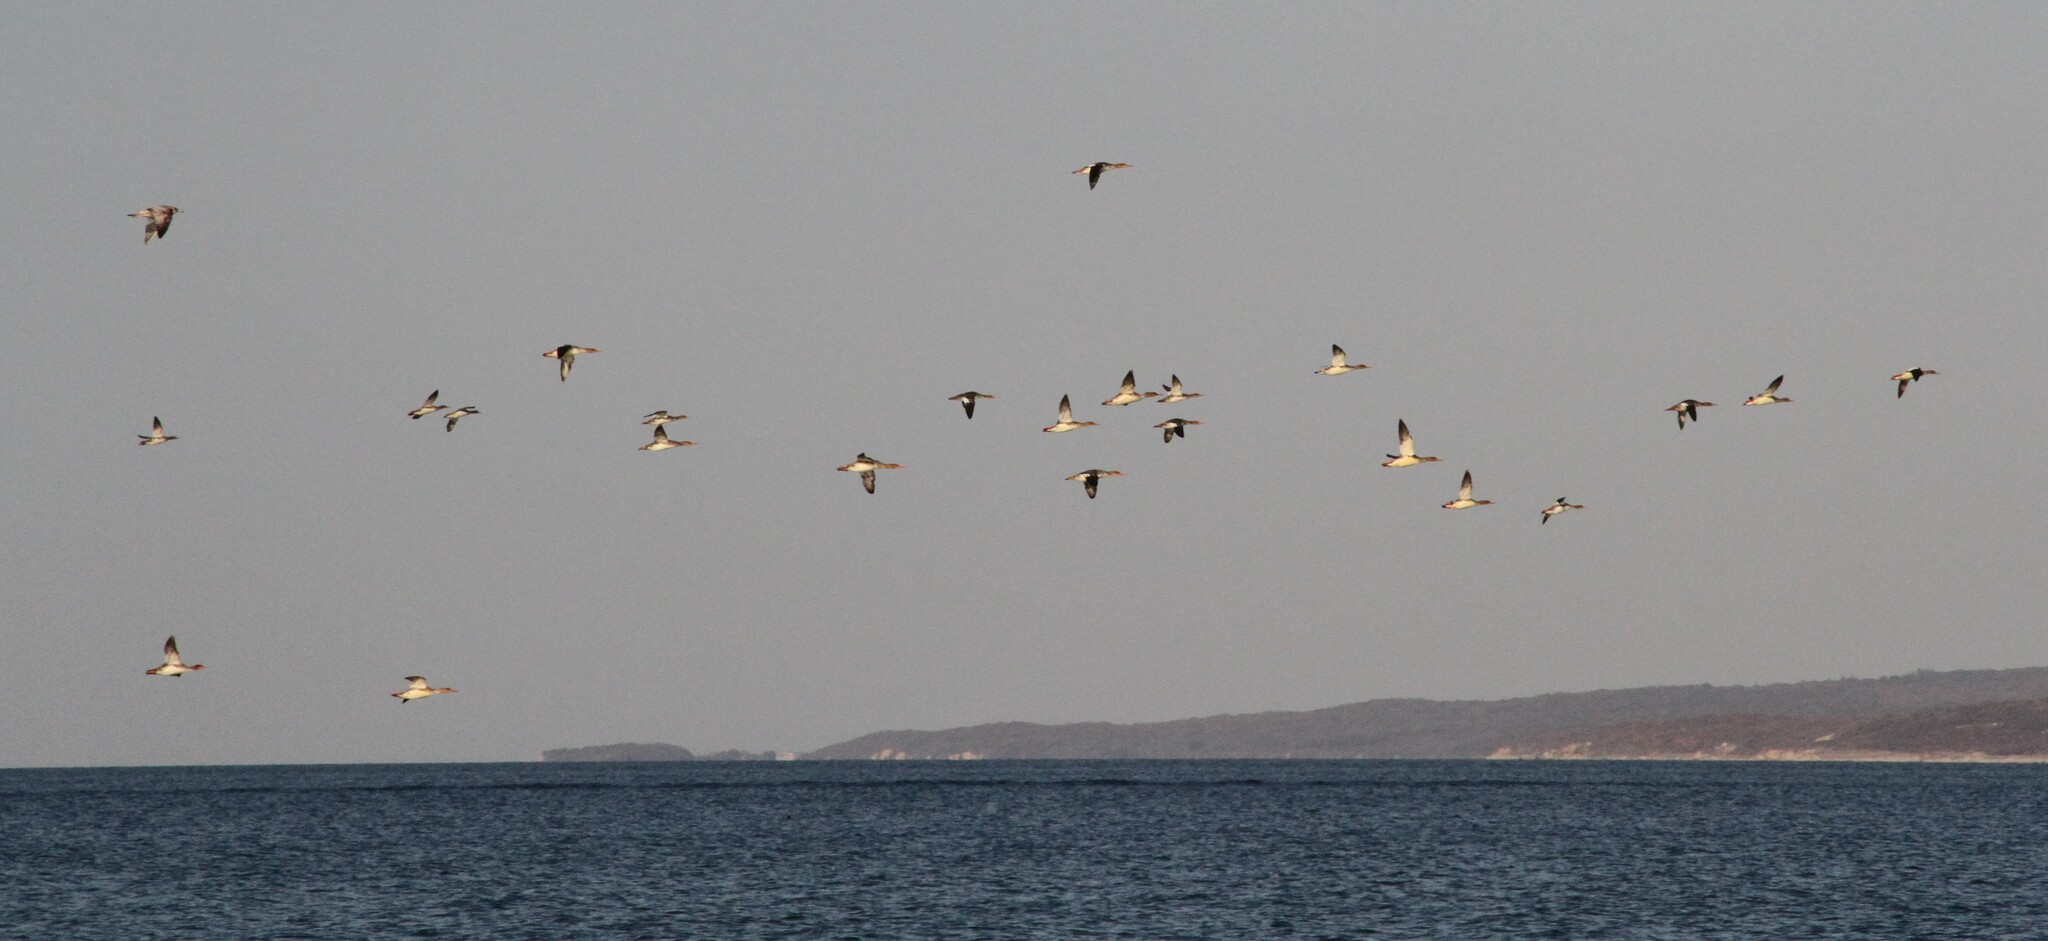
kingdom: Animalia
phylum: Chordata
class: Aves
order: Anseriformes
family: Anatidae
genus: Mergus
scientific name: Mergus serrator
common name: Red-breasted merganser
